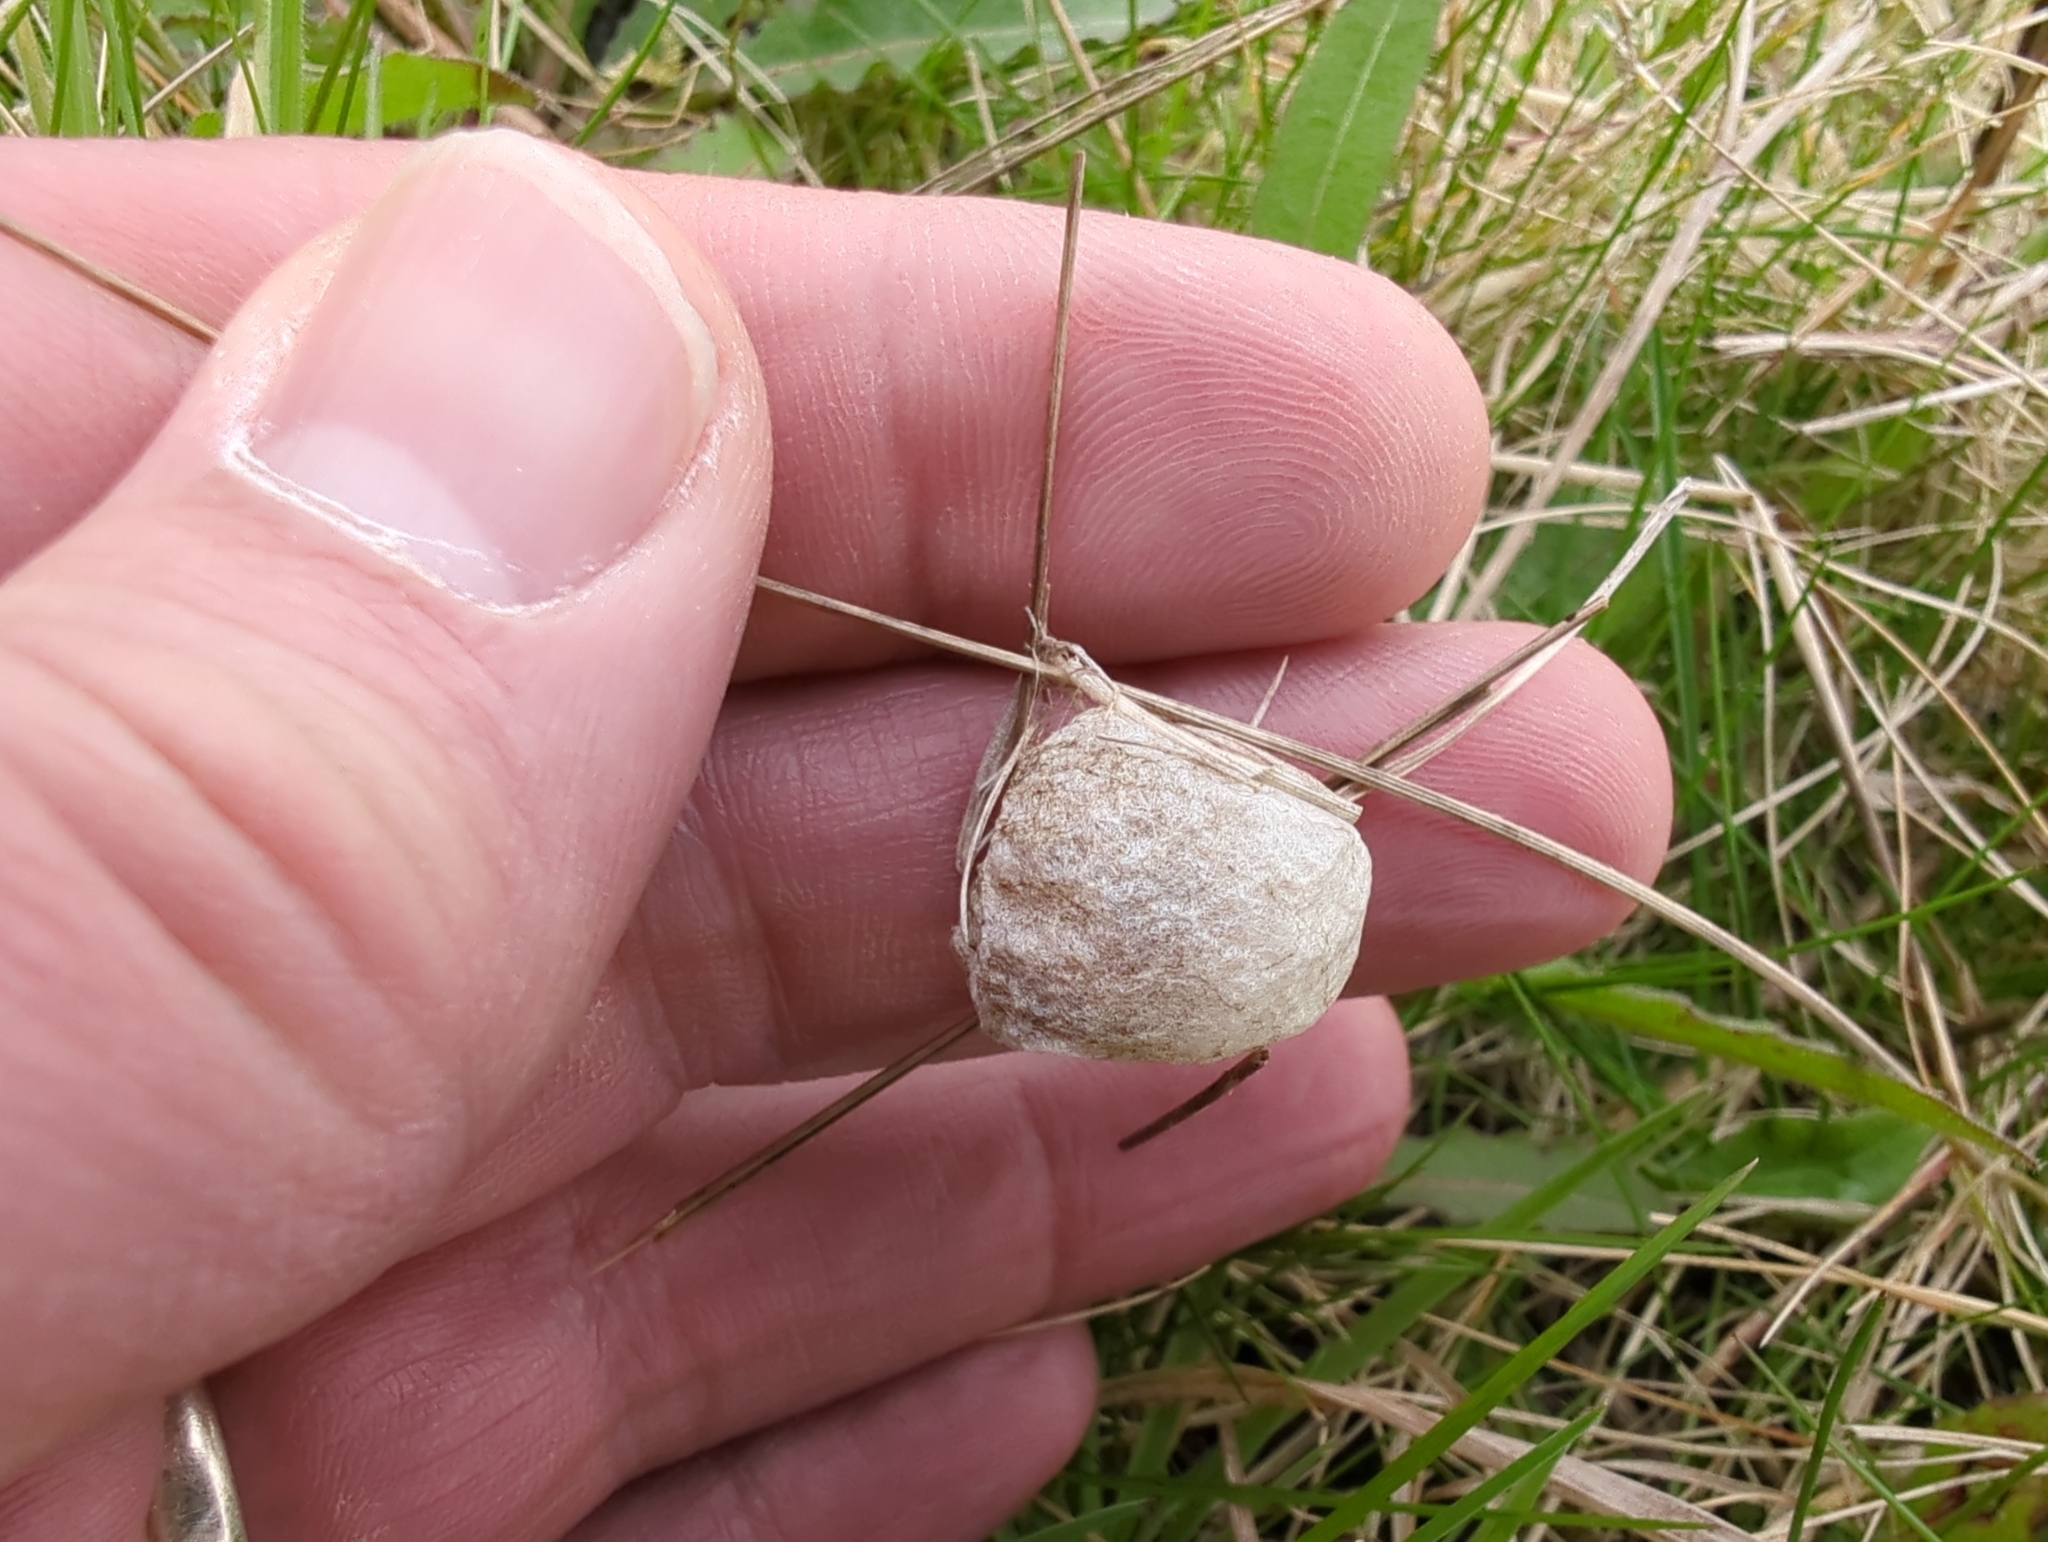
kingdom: Animalia
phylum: Arthropoda
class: Arachnida
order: Araneae
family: Araneidae
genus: Argiope
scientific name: Argiope bruennichi
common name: Wasp spider
